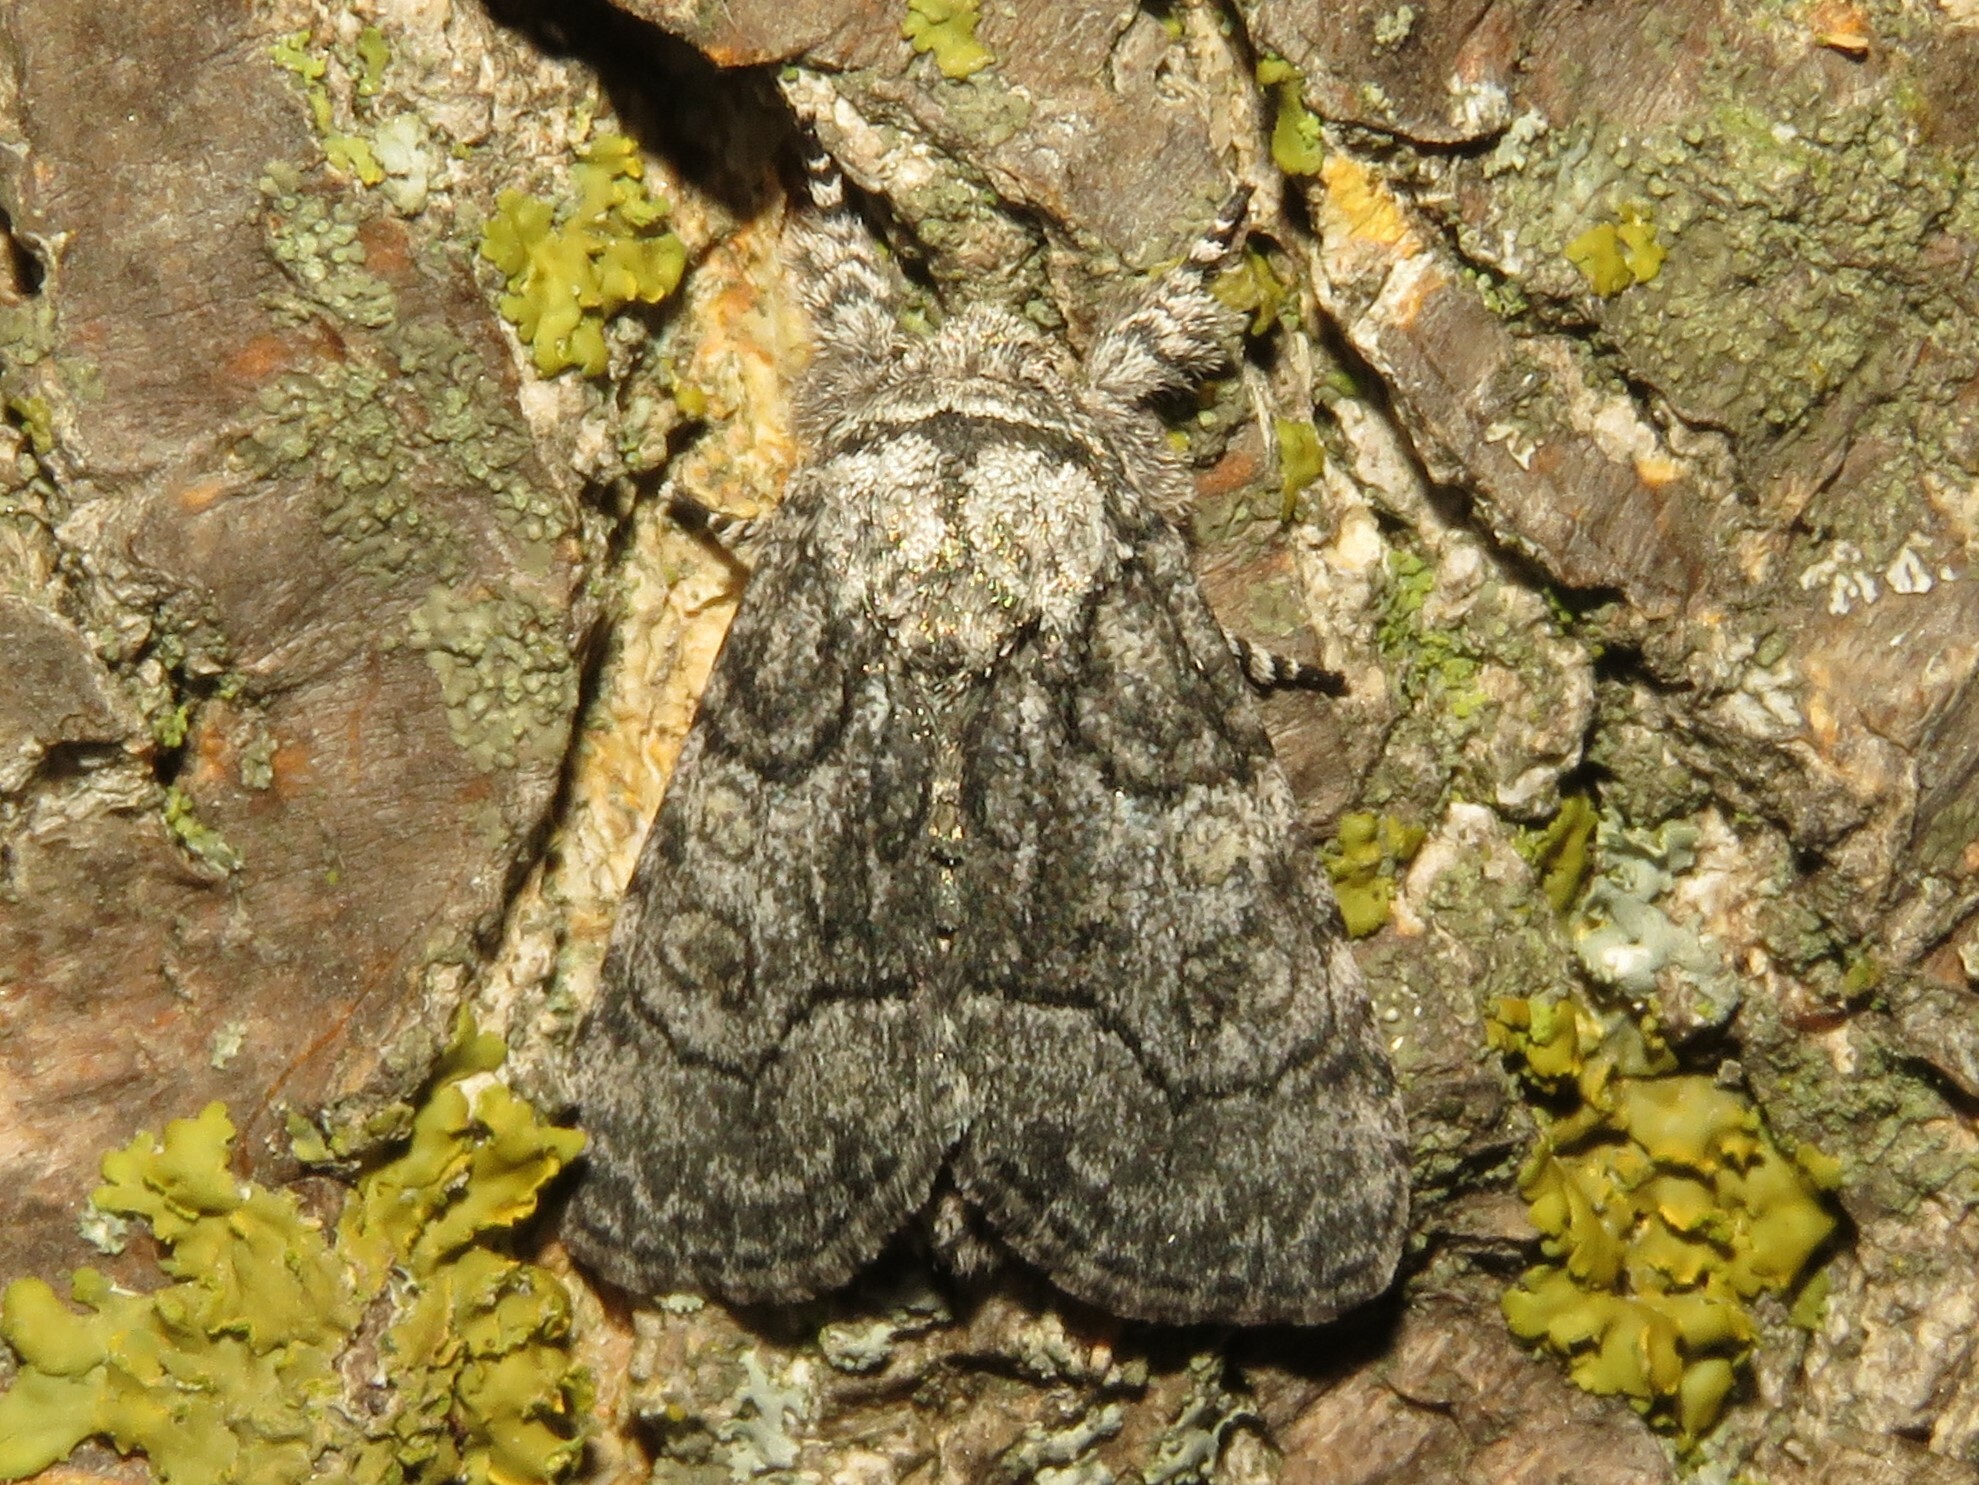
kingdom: Animalia
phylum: Arthropoda
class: Insecta
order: Lepidoptera
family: Noctuidae
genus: Raphia
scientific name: Raphia frater
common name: Brother
